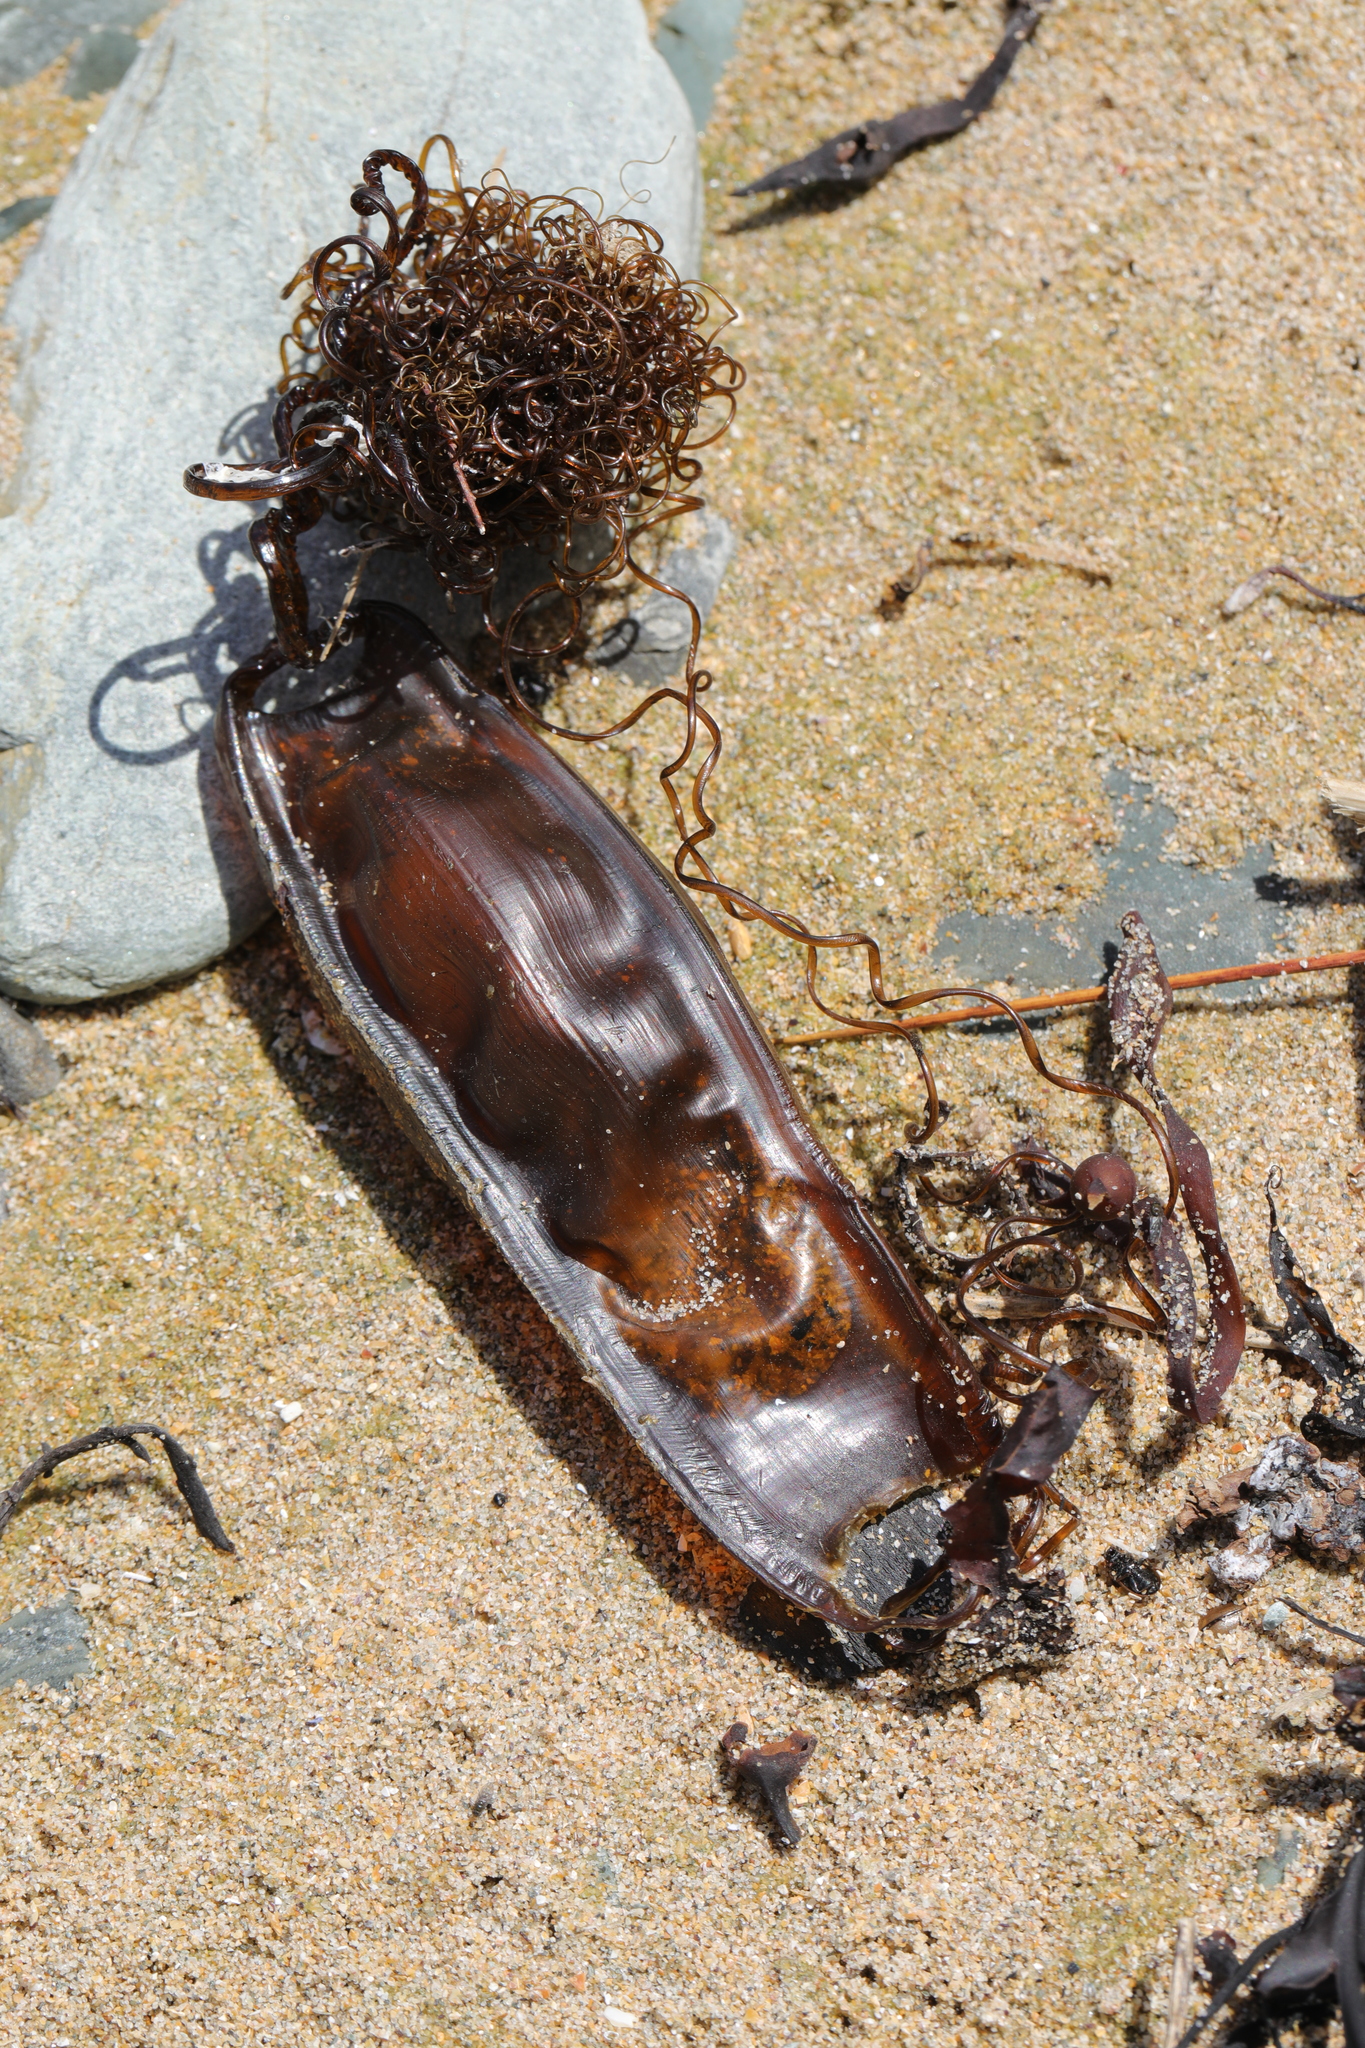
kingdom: Animalia
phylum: Chordata
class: Elasmobranchii
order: Carcharhiniformes
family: Scyliorhinidae
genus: Scyliorhinus
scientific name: Scyliorhinus stellaris
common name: Nursehound
